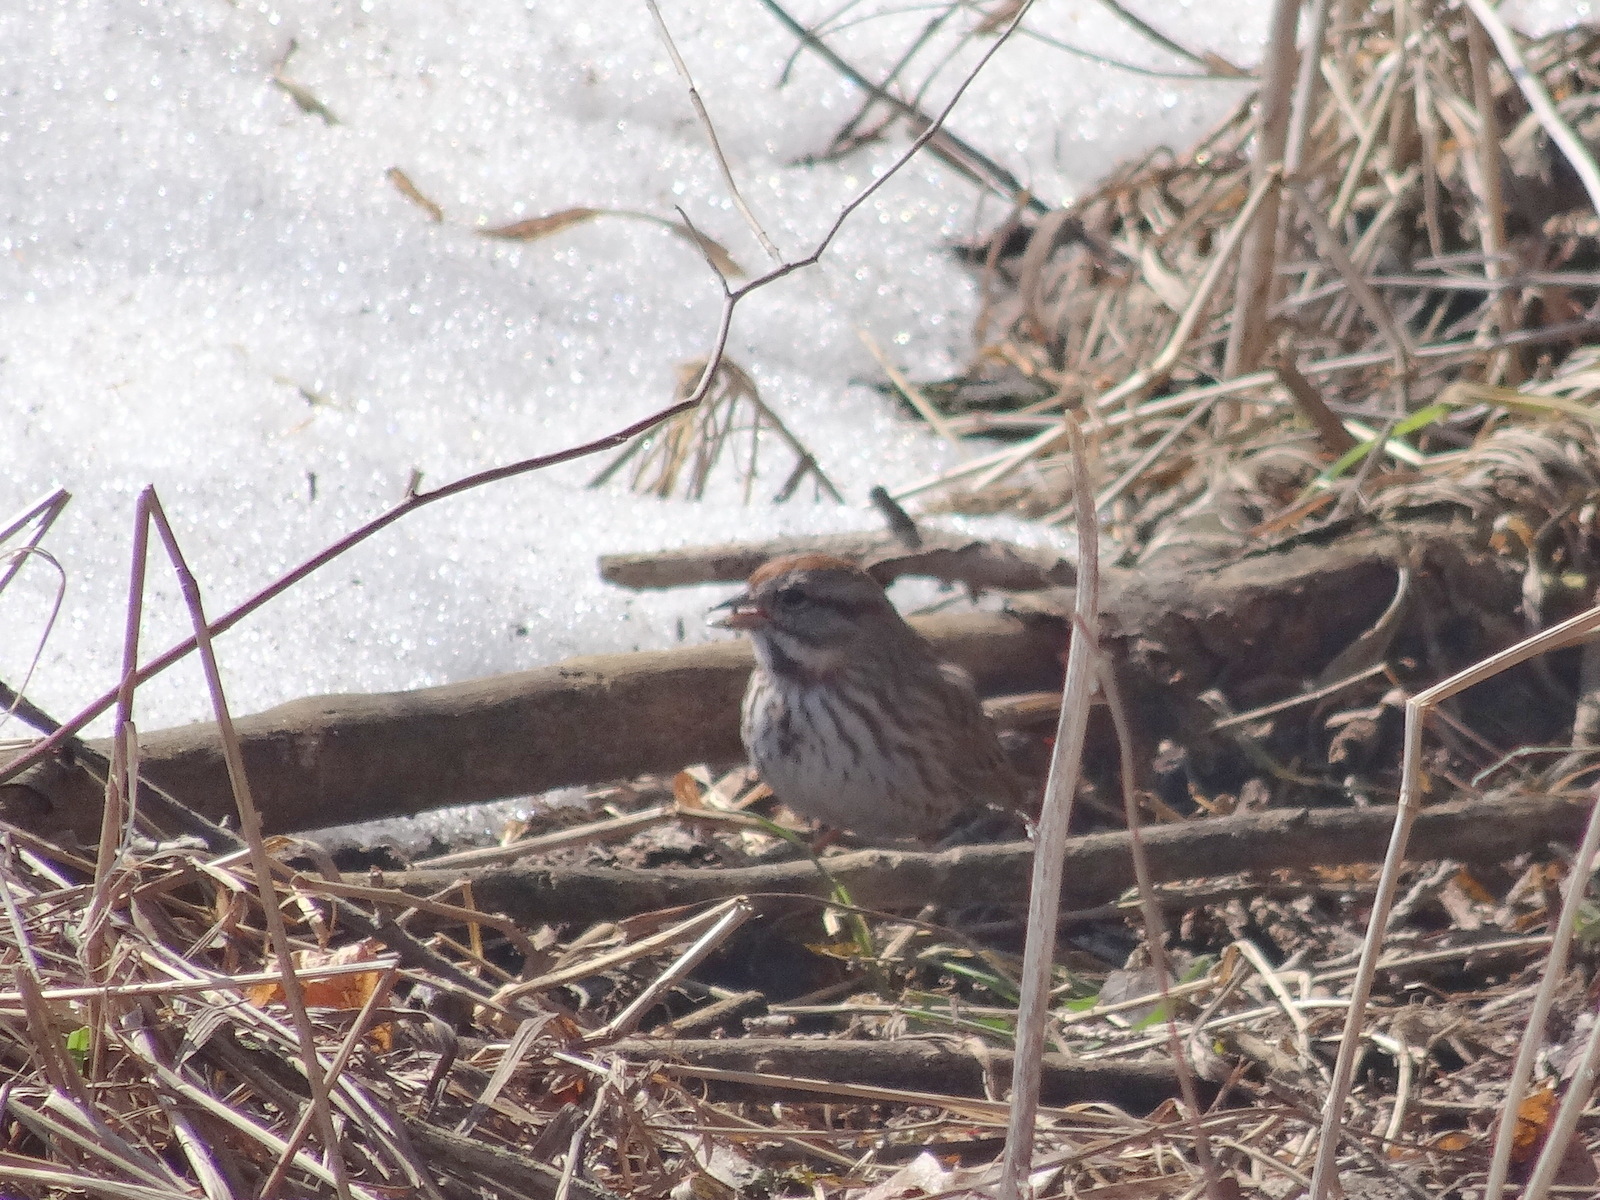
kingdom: Animalia
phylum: Chordata
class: Aves
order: Passeriformes
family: Passerellidae
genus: Melospiza
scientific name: Melospiza melodia
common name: Song sparrow
